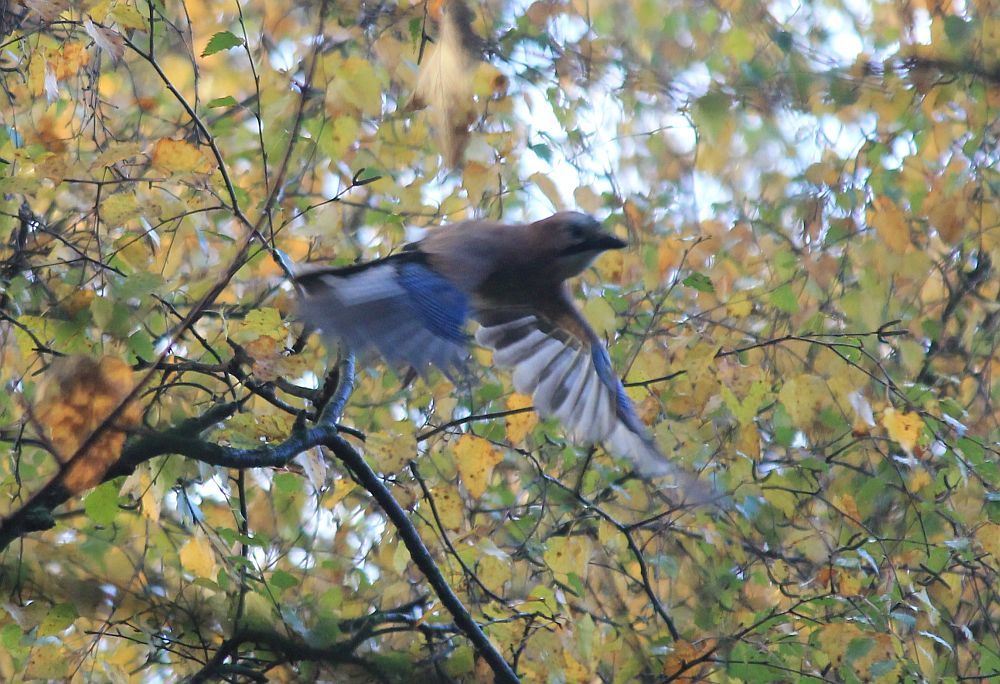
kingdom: Animalia
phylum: Chordata
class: Aves
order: Passeriformes
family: Corvidae
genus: Garrulus
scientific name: Garrulus glandarius
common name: Eurasian jay
